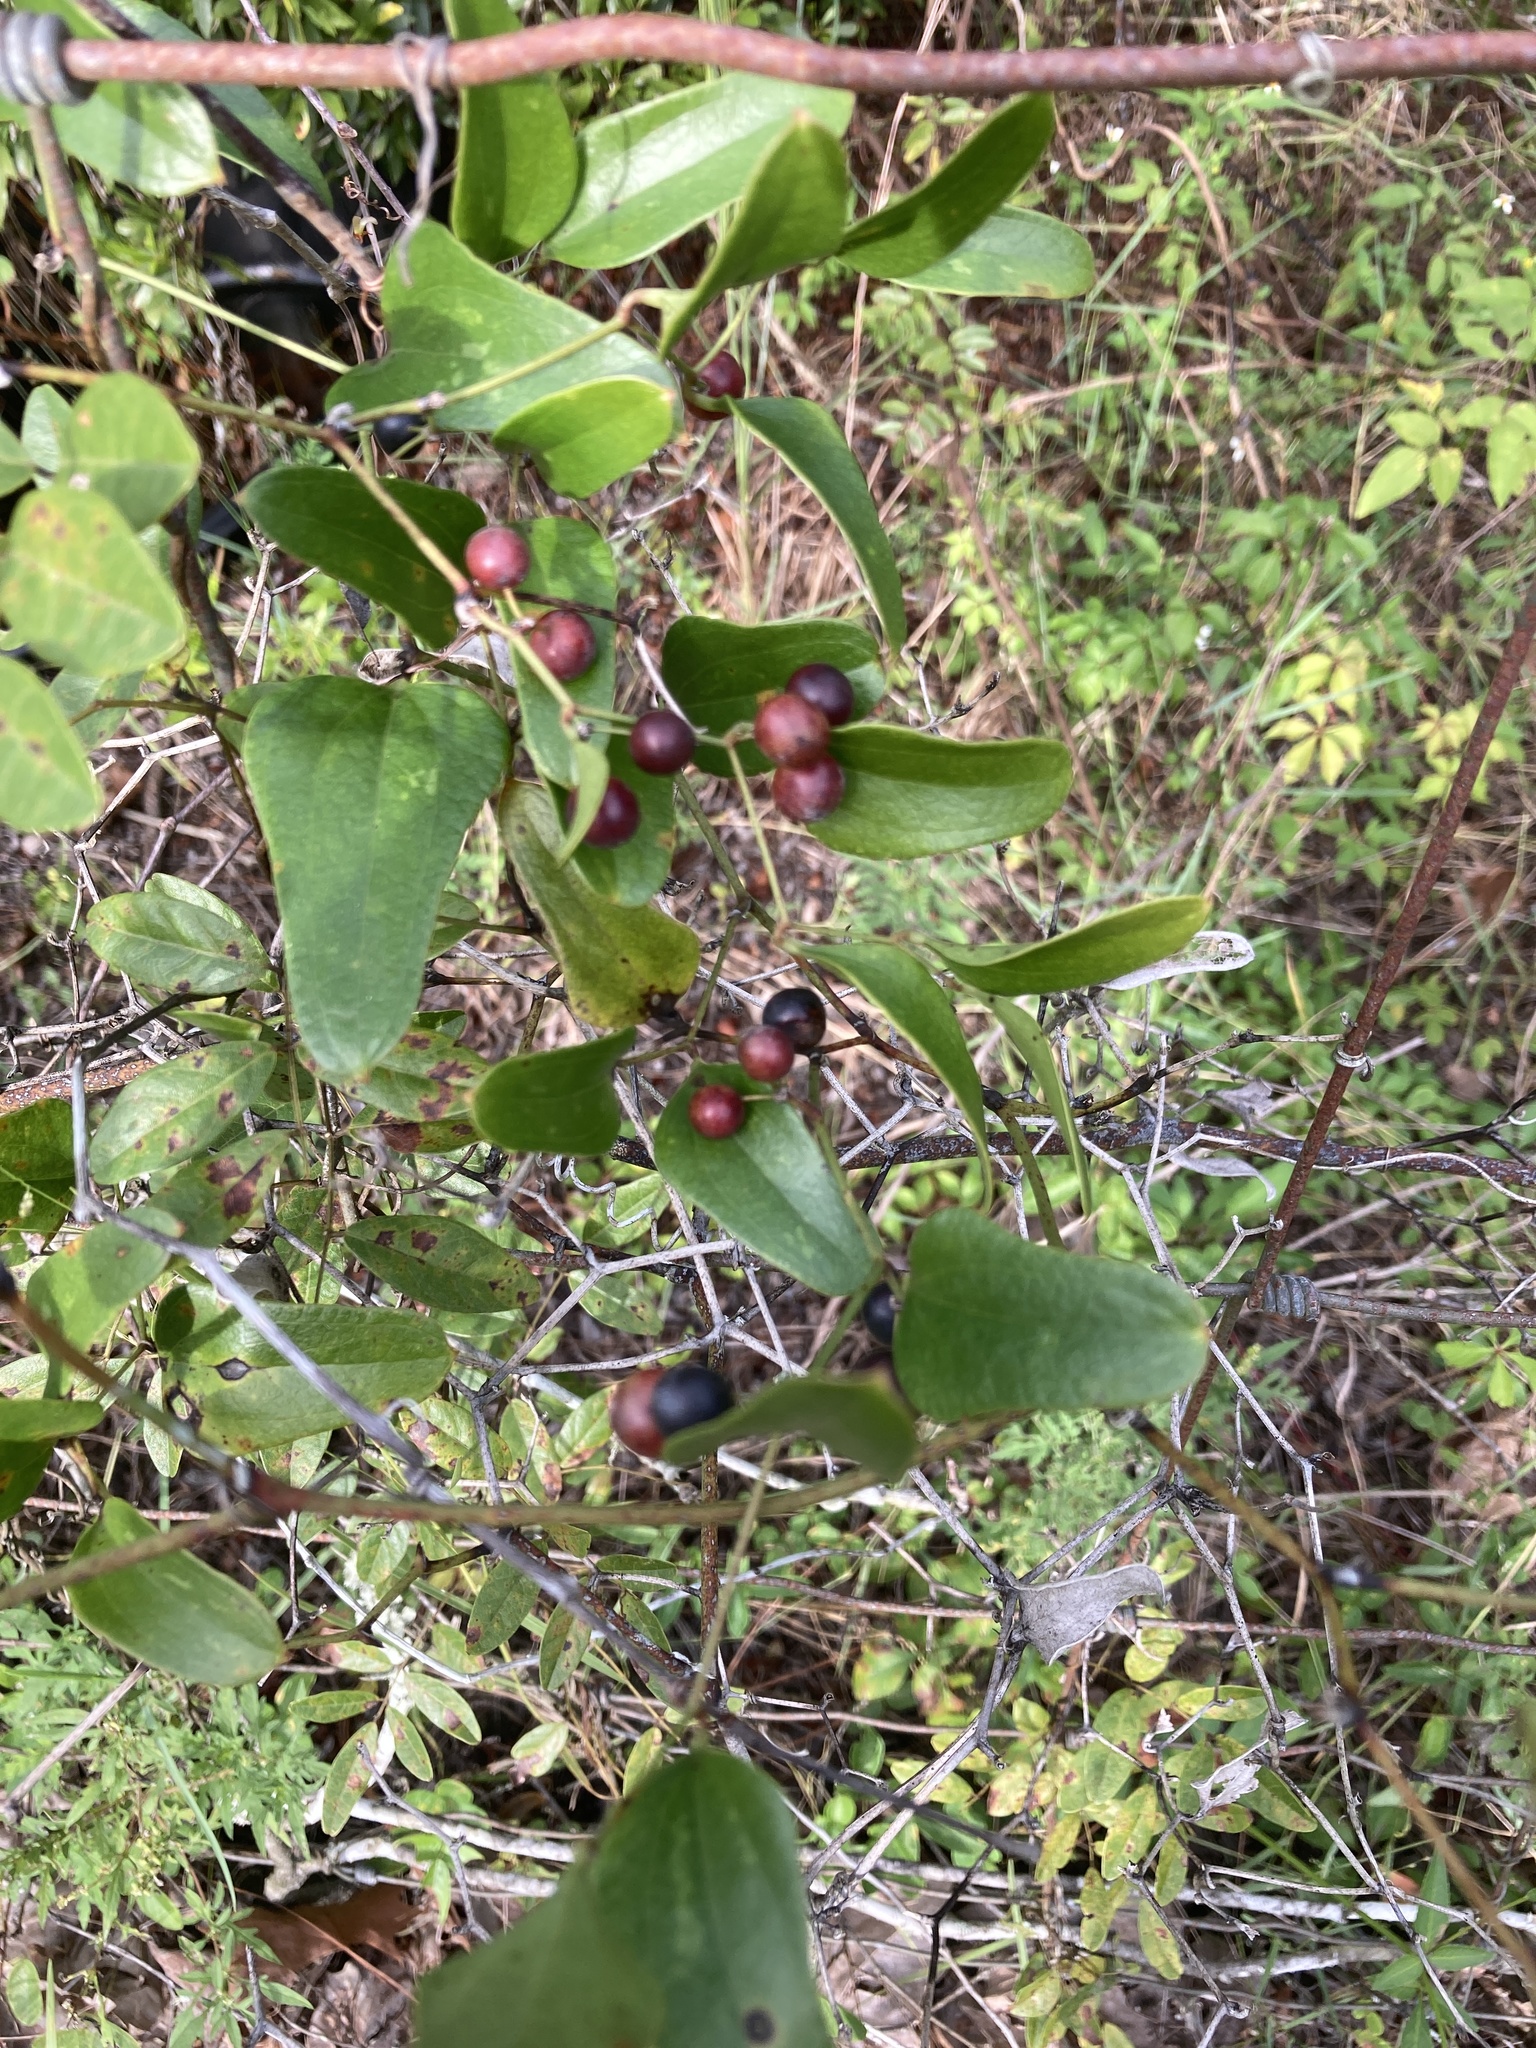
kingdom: Plantae
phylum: Tracheophyta
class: Liliopsida
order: Liliales
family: Smilacaceae
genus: Smilax
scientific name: Smilax auriculata
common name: Wild bamboo
